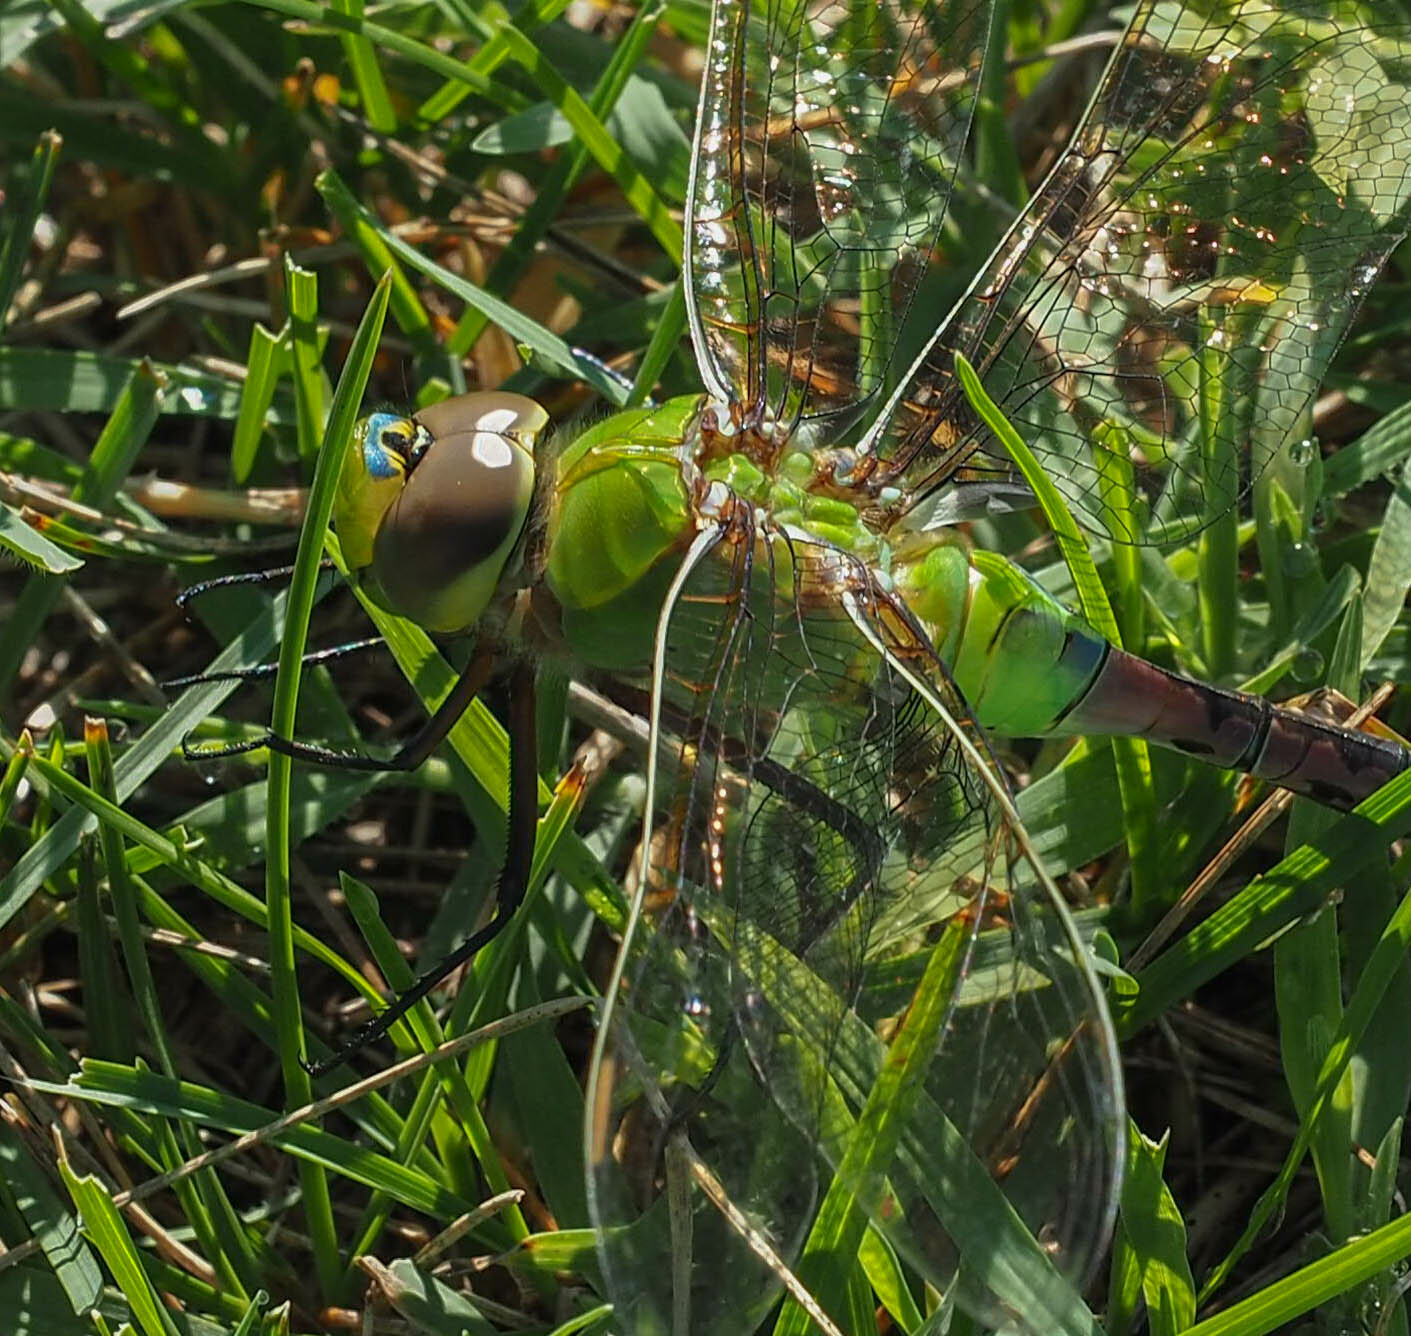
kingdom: Animalia
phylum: Arthropoda
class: Insecta
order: Odonata
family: Aeshnidae
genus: Anax
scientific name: Anax junius
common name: Common green darner
